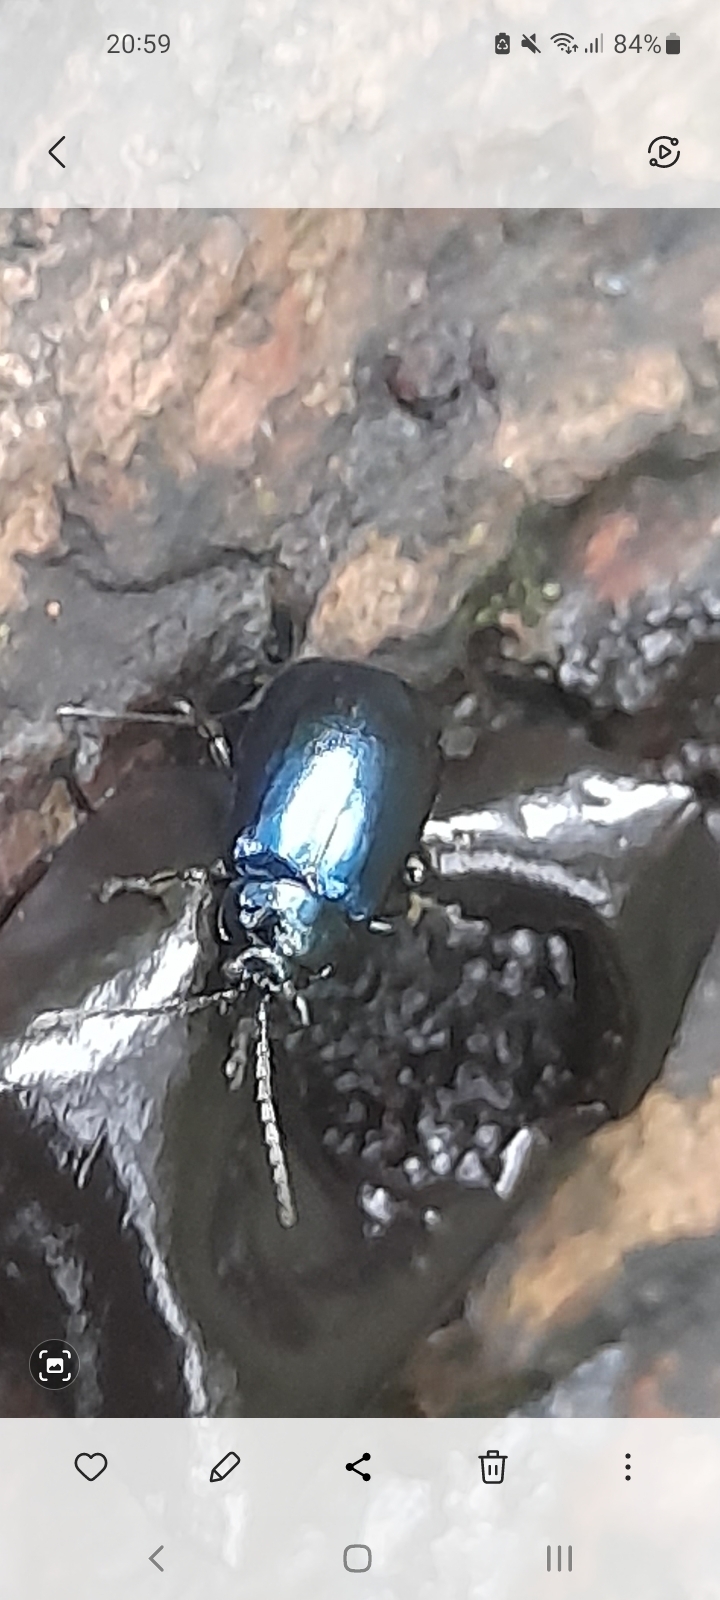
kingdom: Animalia
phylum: Arthropoda
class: Insecta
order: Coleoptera
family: Chrysomelidae
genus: Agelastica
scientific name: Agelastica alni
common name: Alder leaf beetle
